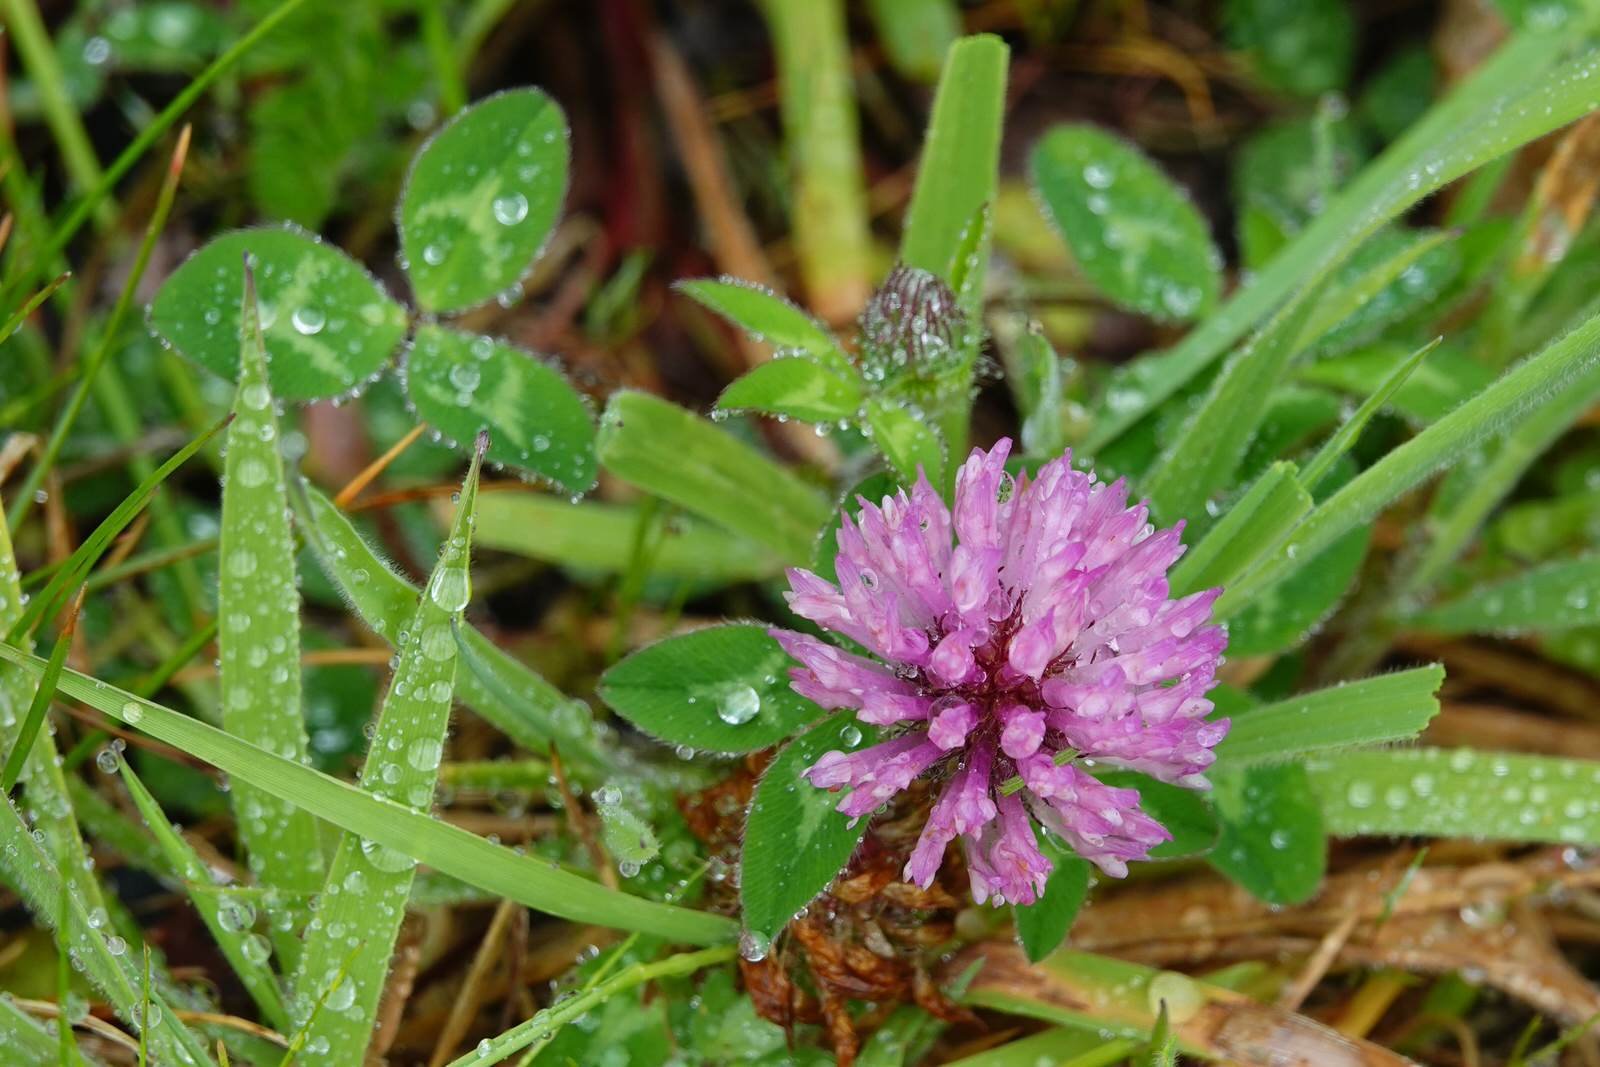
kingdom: Plantae
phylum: Tracheophyta
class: Magnoliopsida
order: Fabales
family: Fabaceae
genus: Trifolium
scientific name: Trifolium pratense
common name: Red clover
